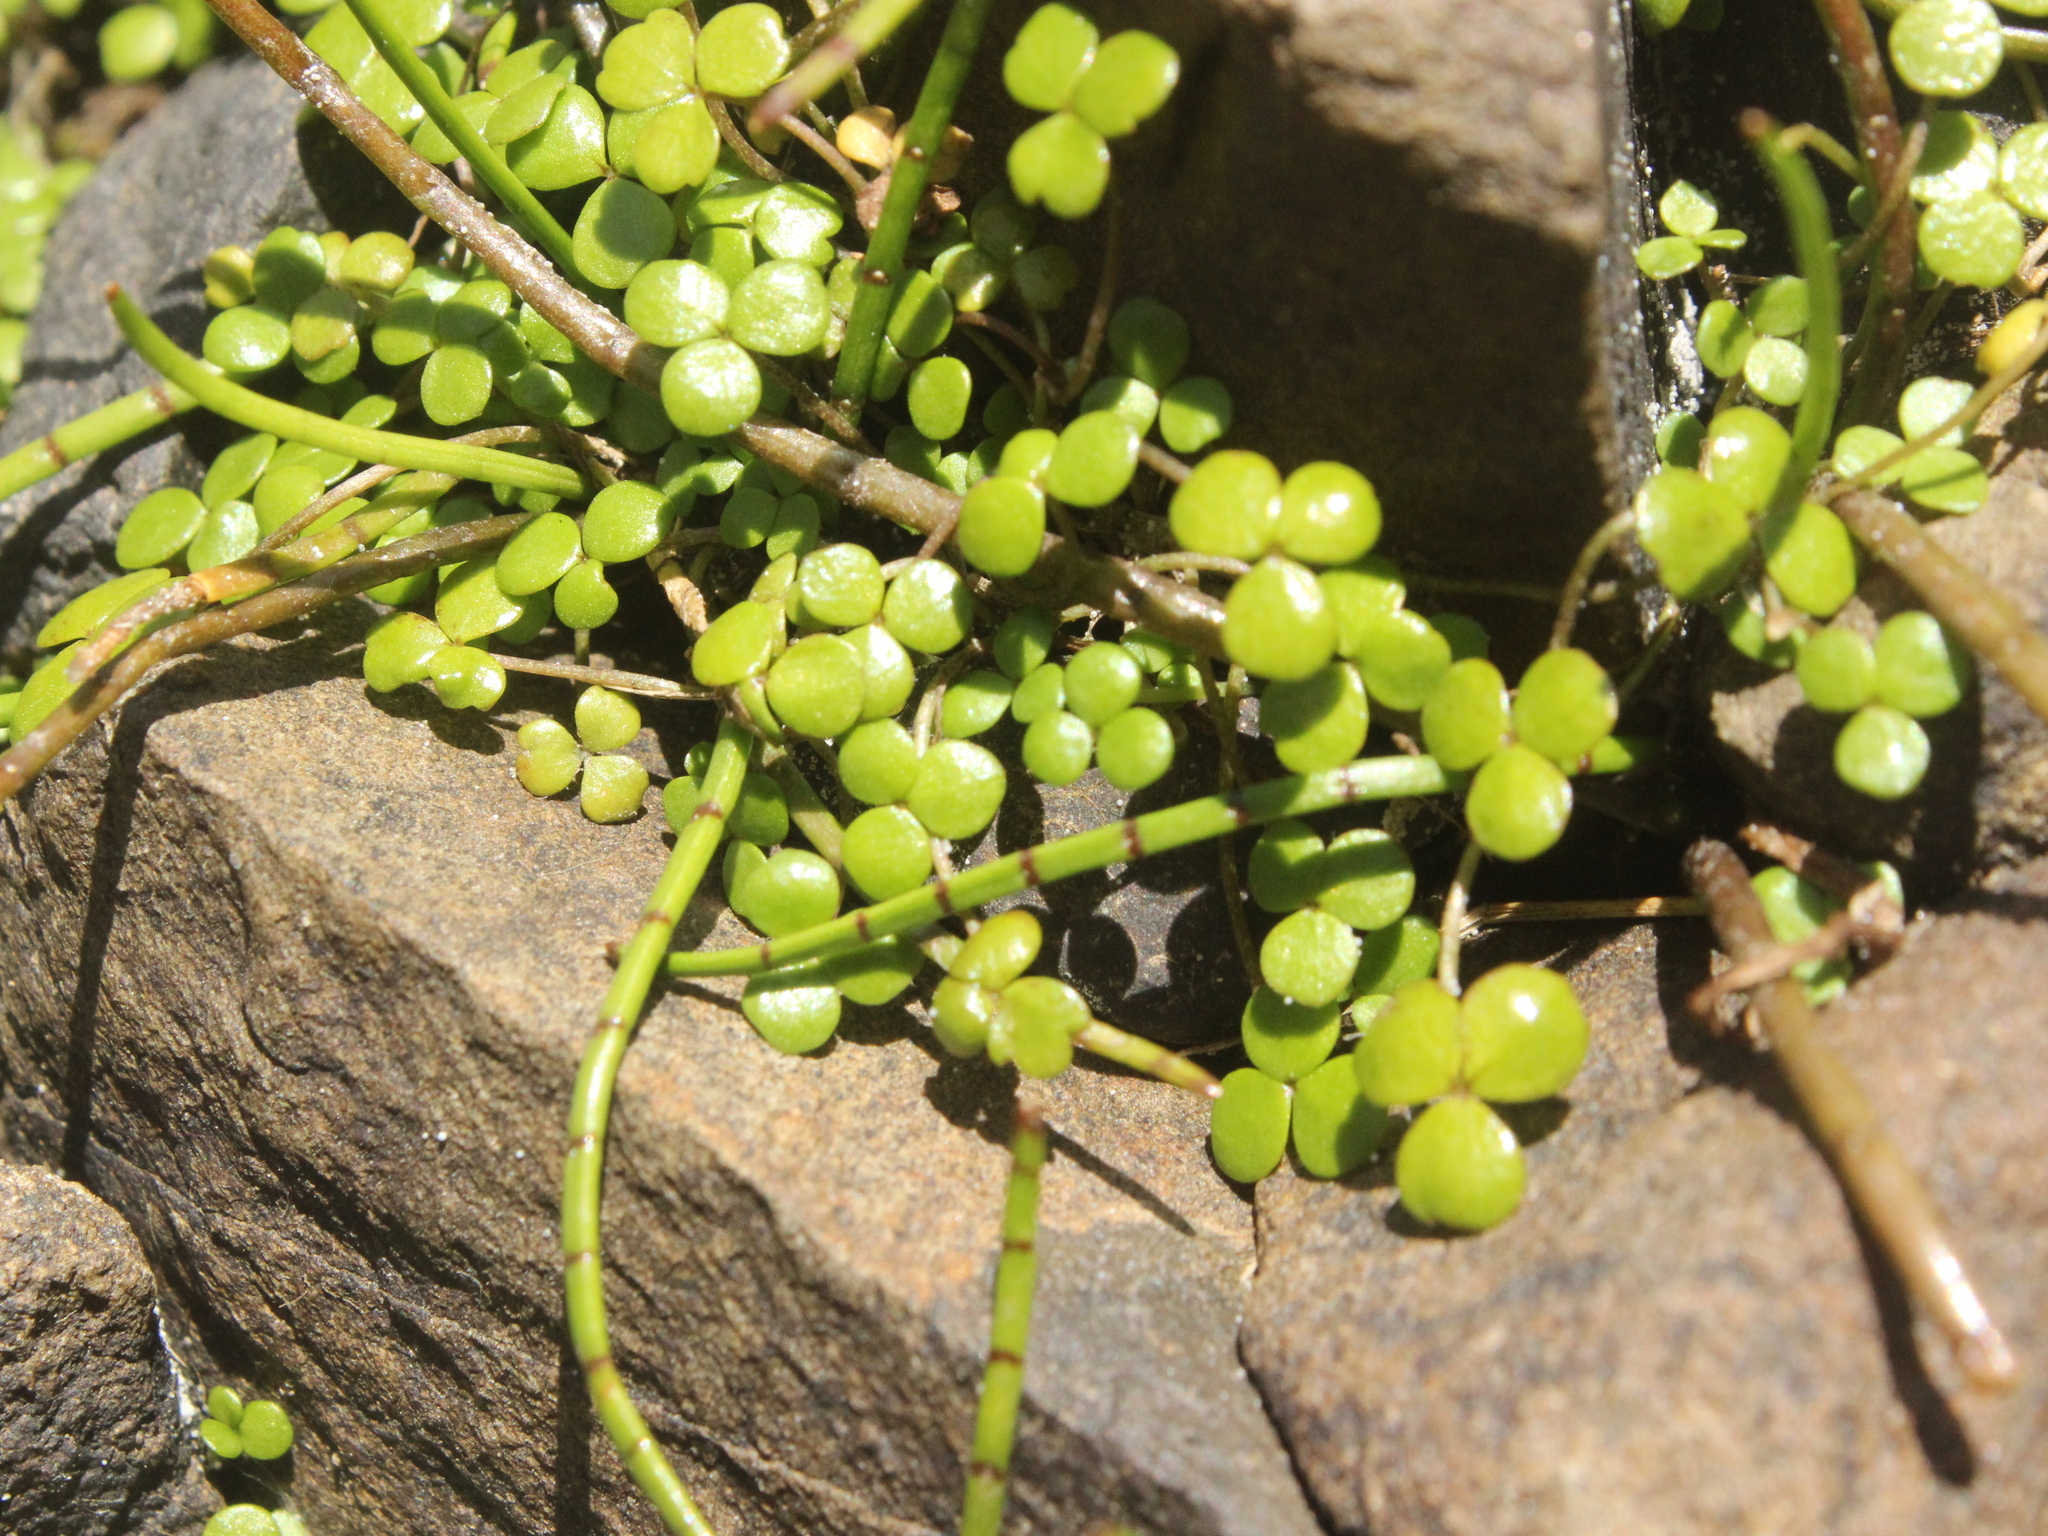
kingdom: Plantae
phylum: Tracheophyta
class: Magnoliopsida
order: Apiales
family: Araliaceae
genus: Hydrocotyle
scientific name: Hydrocotyle hydrophila
